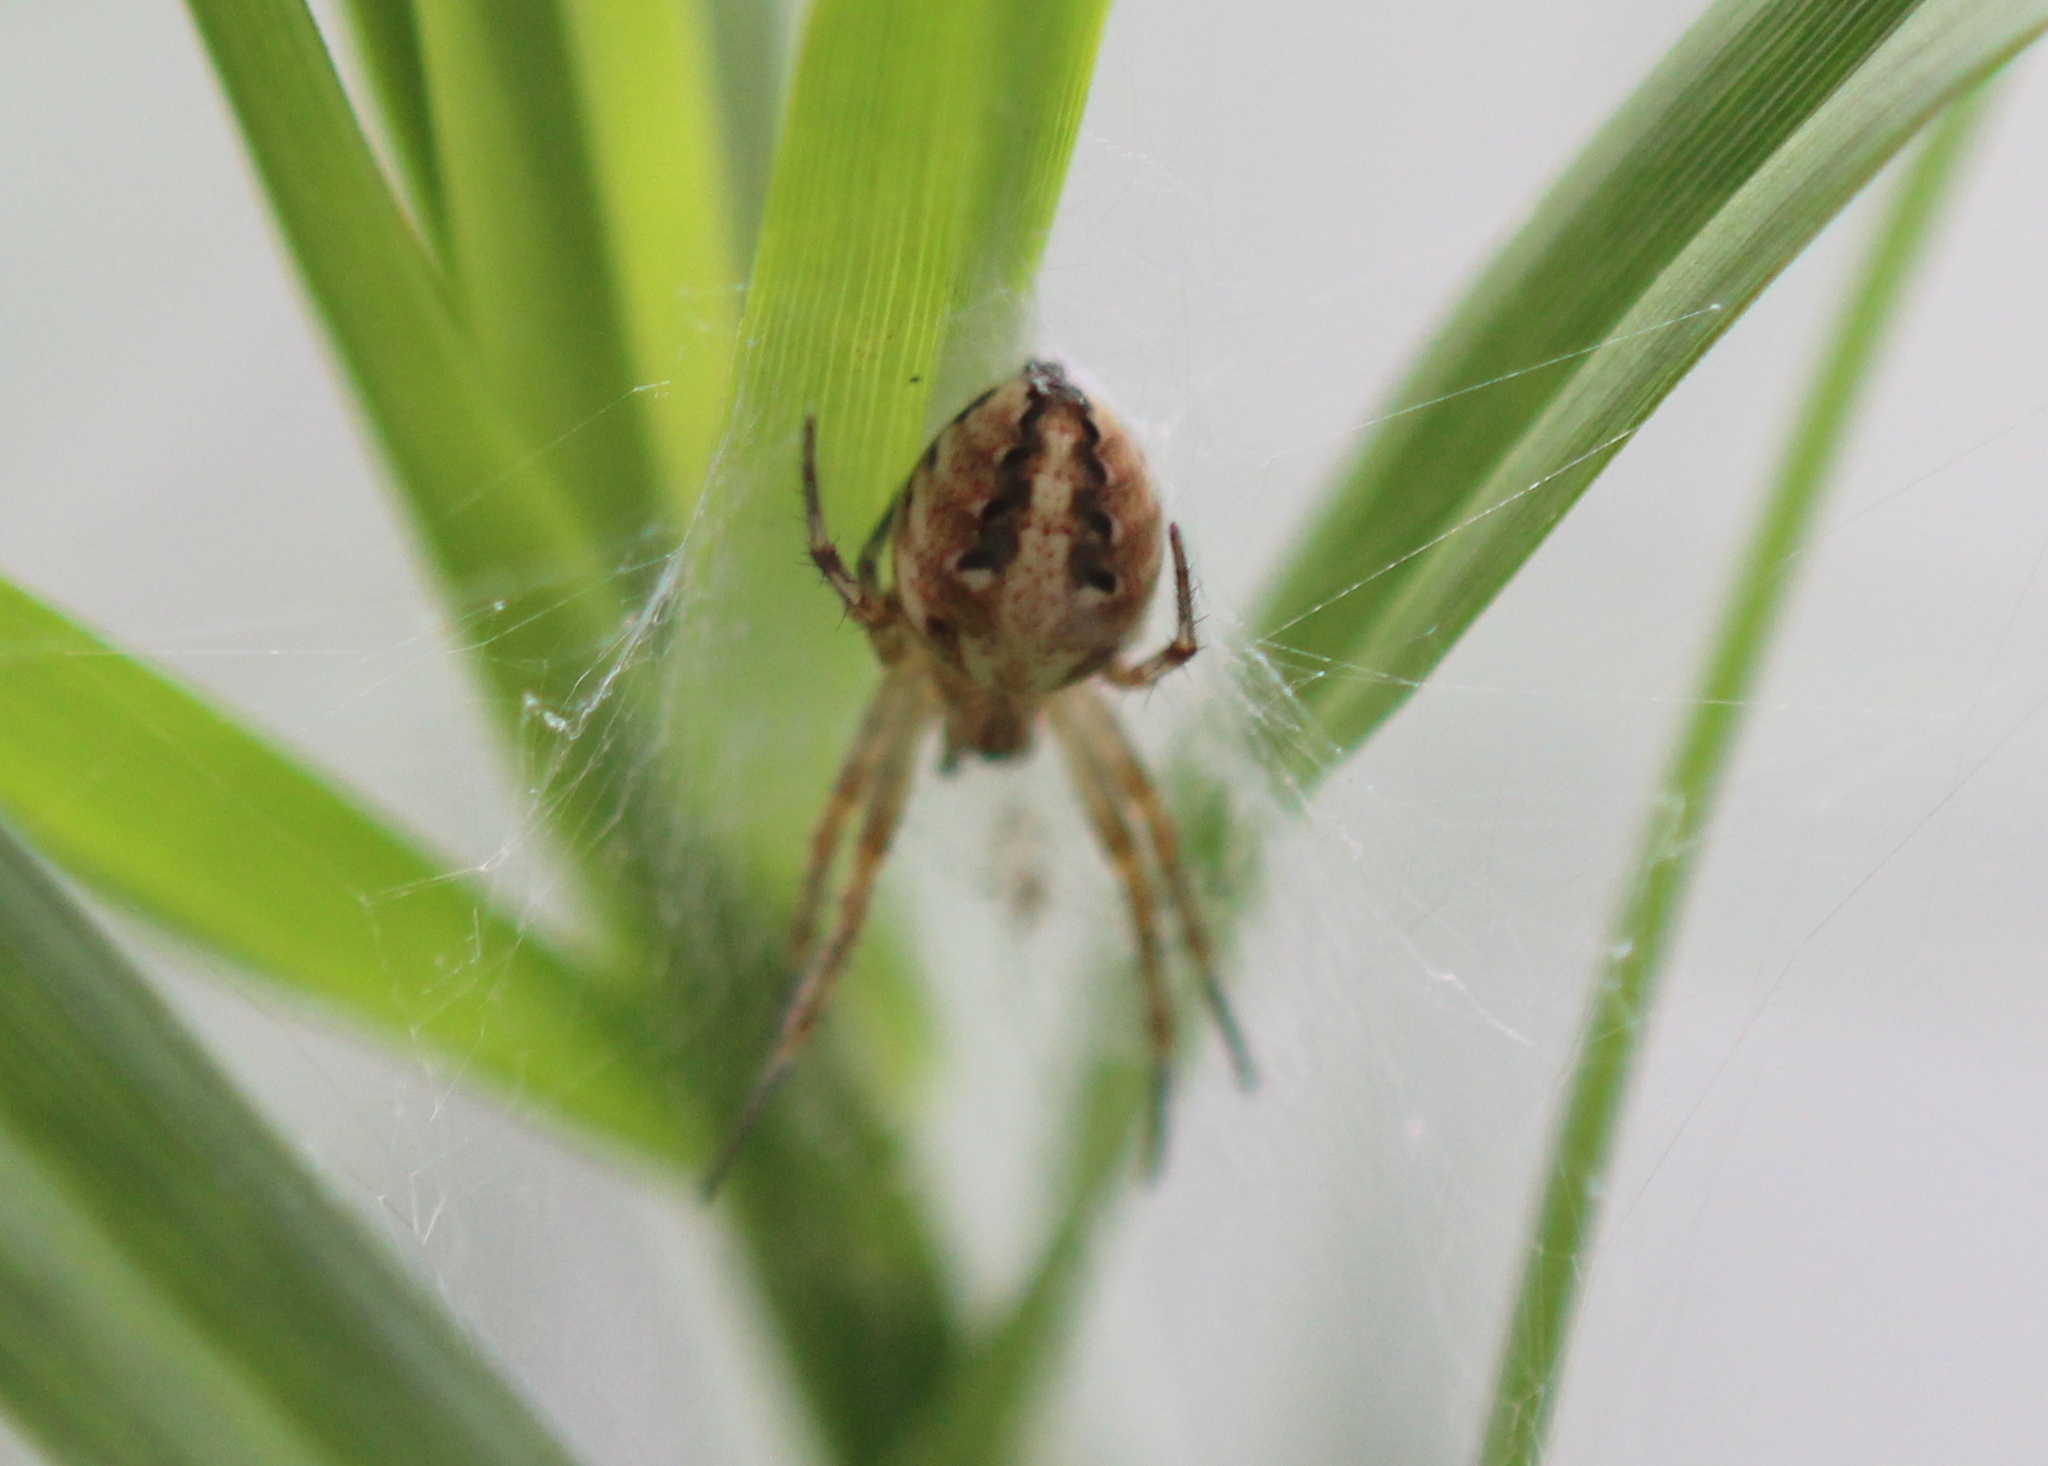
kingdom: Animalia
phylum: Arthropoda
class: Arachnida
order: Araneae
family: Araneidae
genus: Neoscona
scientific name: Neoscona arabesca
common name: Orb weavers
